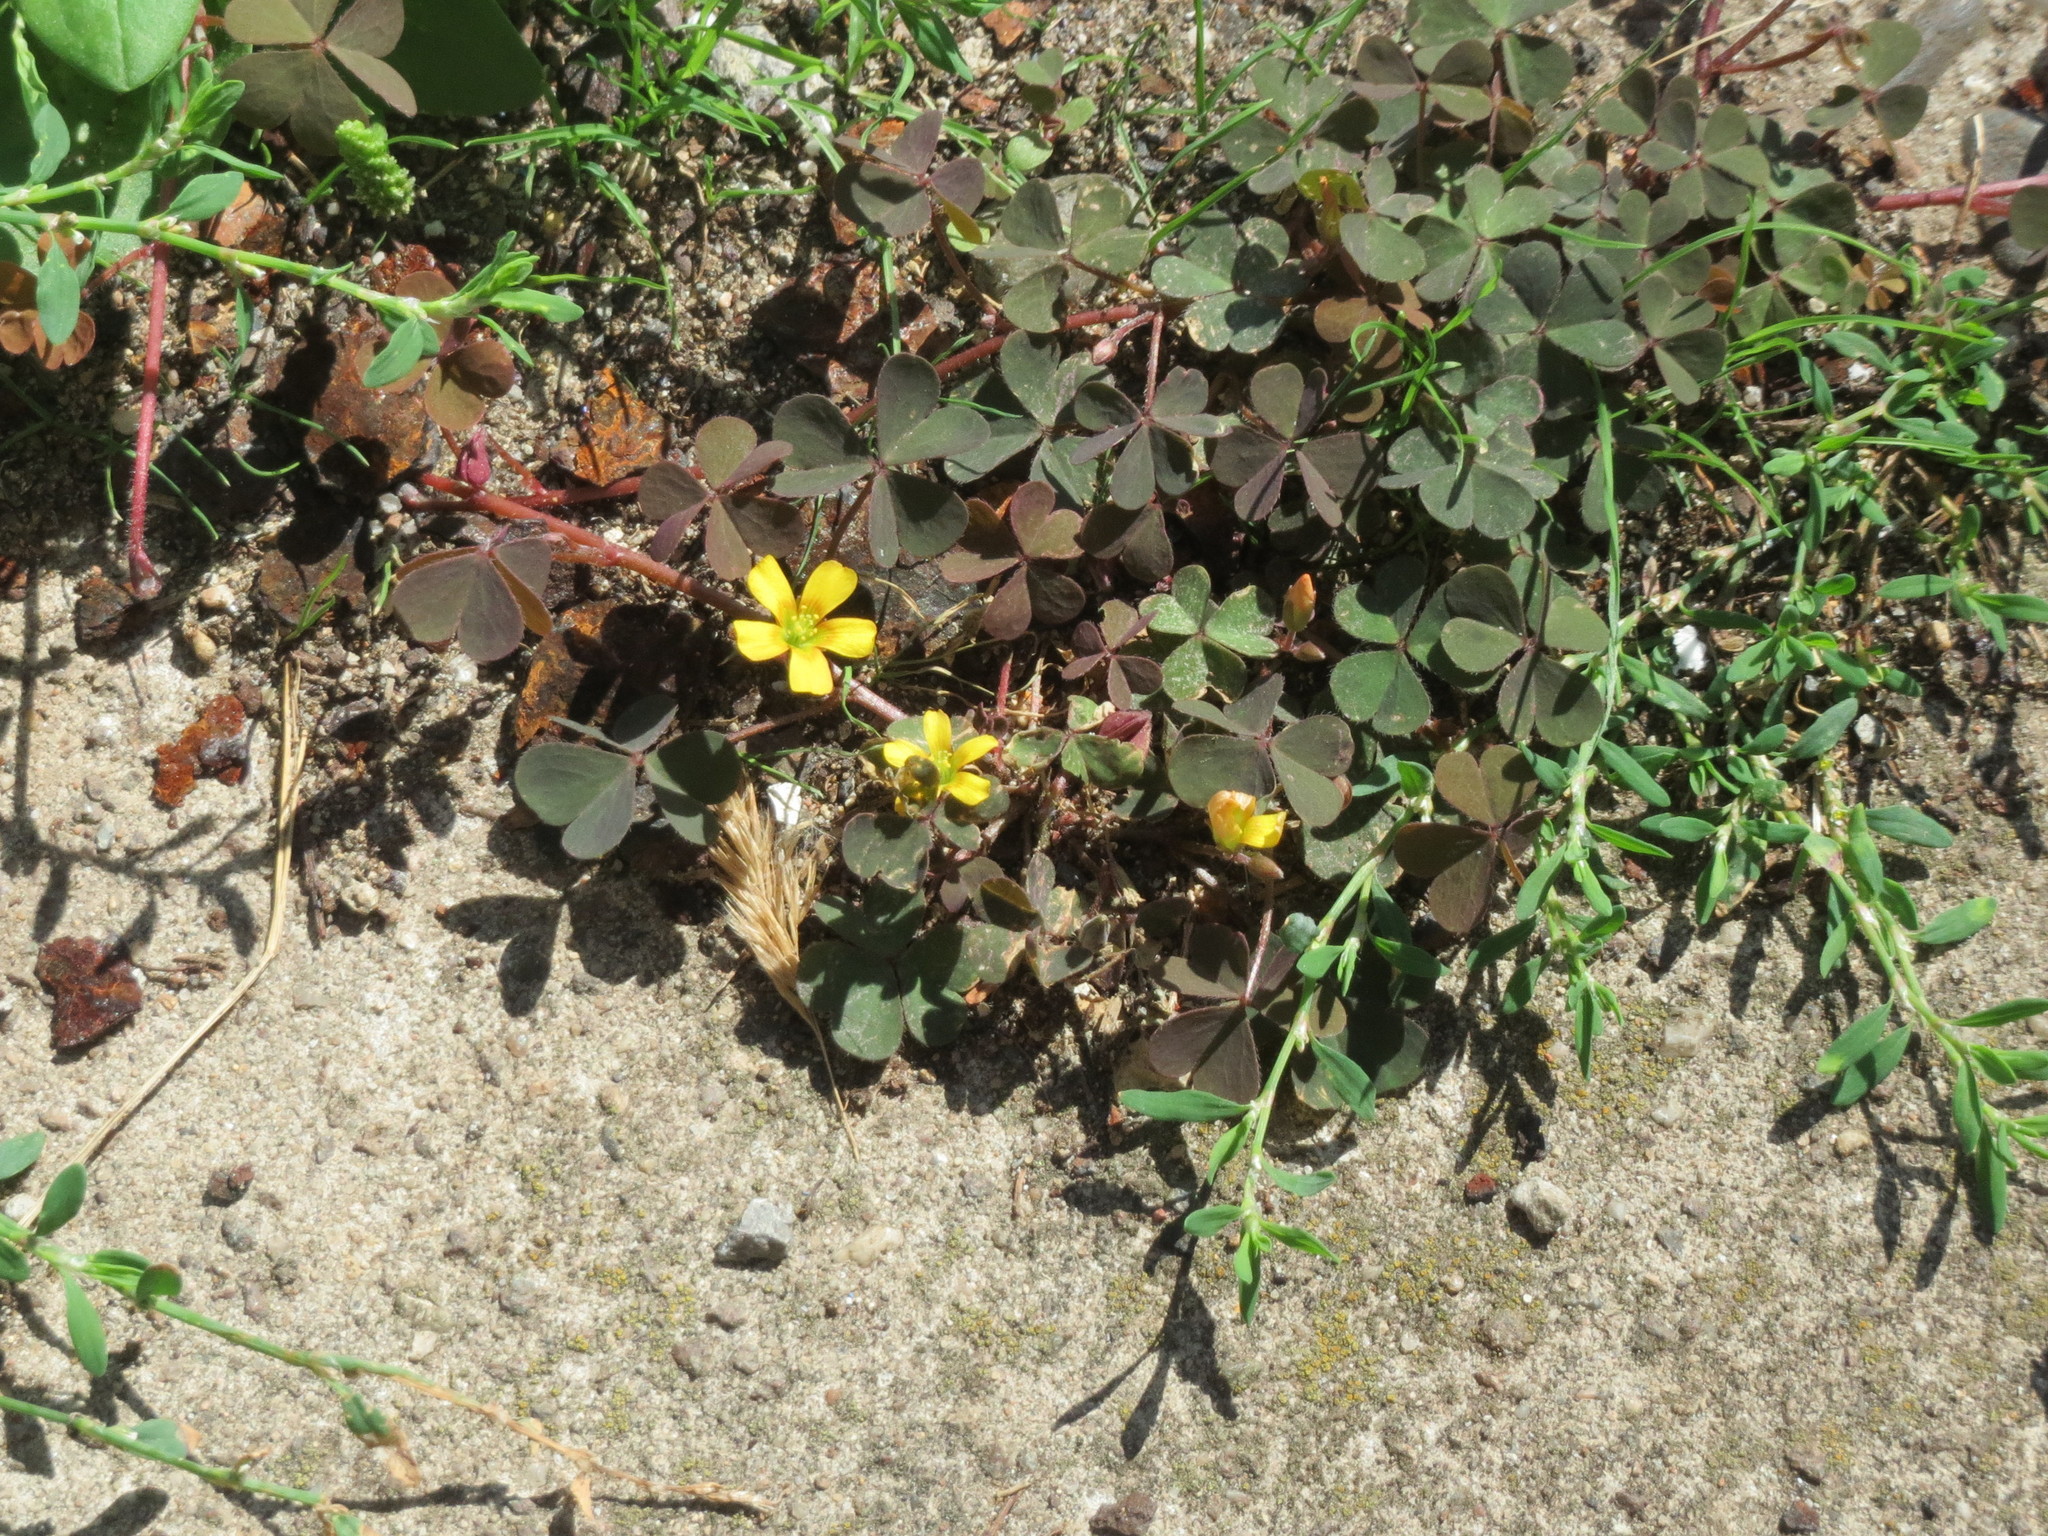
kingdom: Plantae
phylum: Tracheophyta
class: Magnoliopsida
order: Oxalidales
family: Oxalidaceae
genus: Oxalis
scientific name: Oxalis corniculata
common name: Procumbent yellow-sorrel
